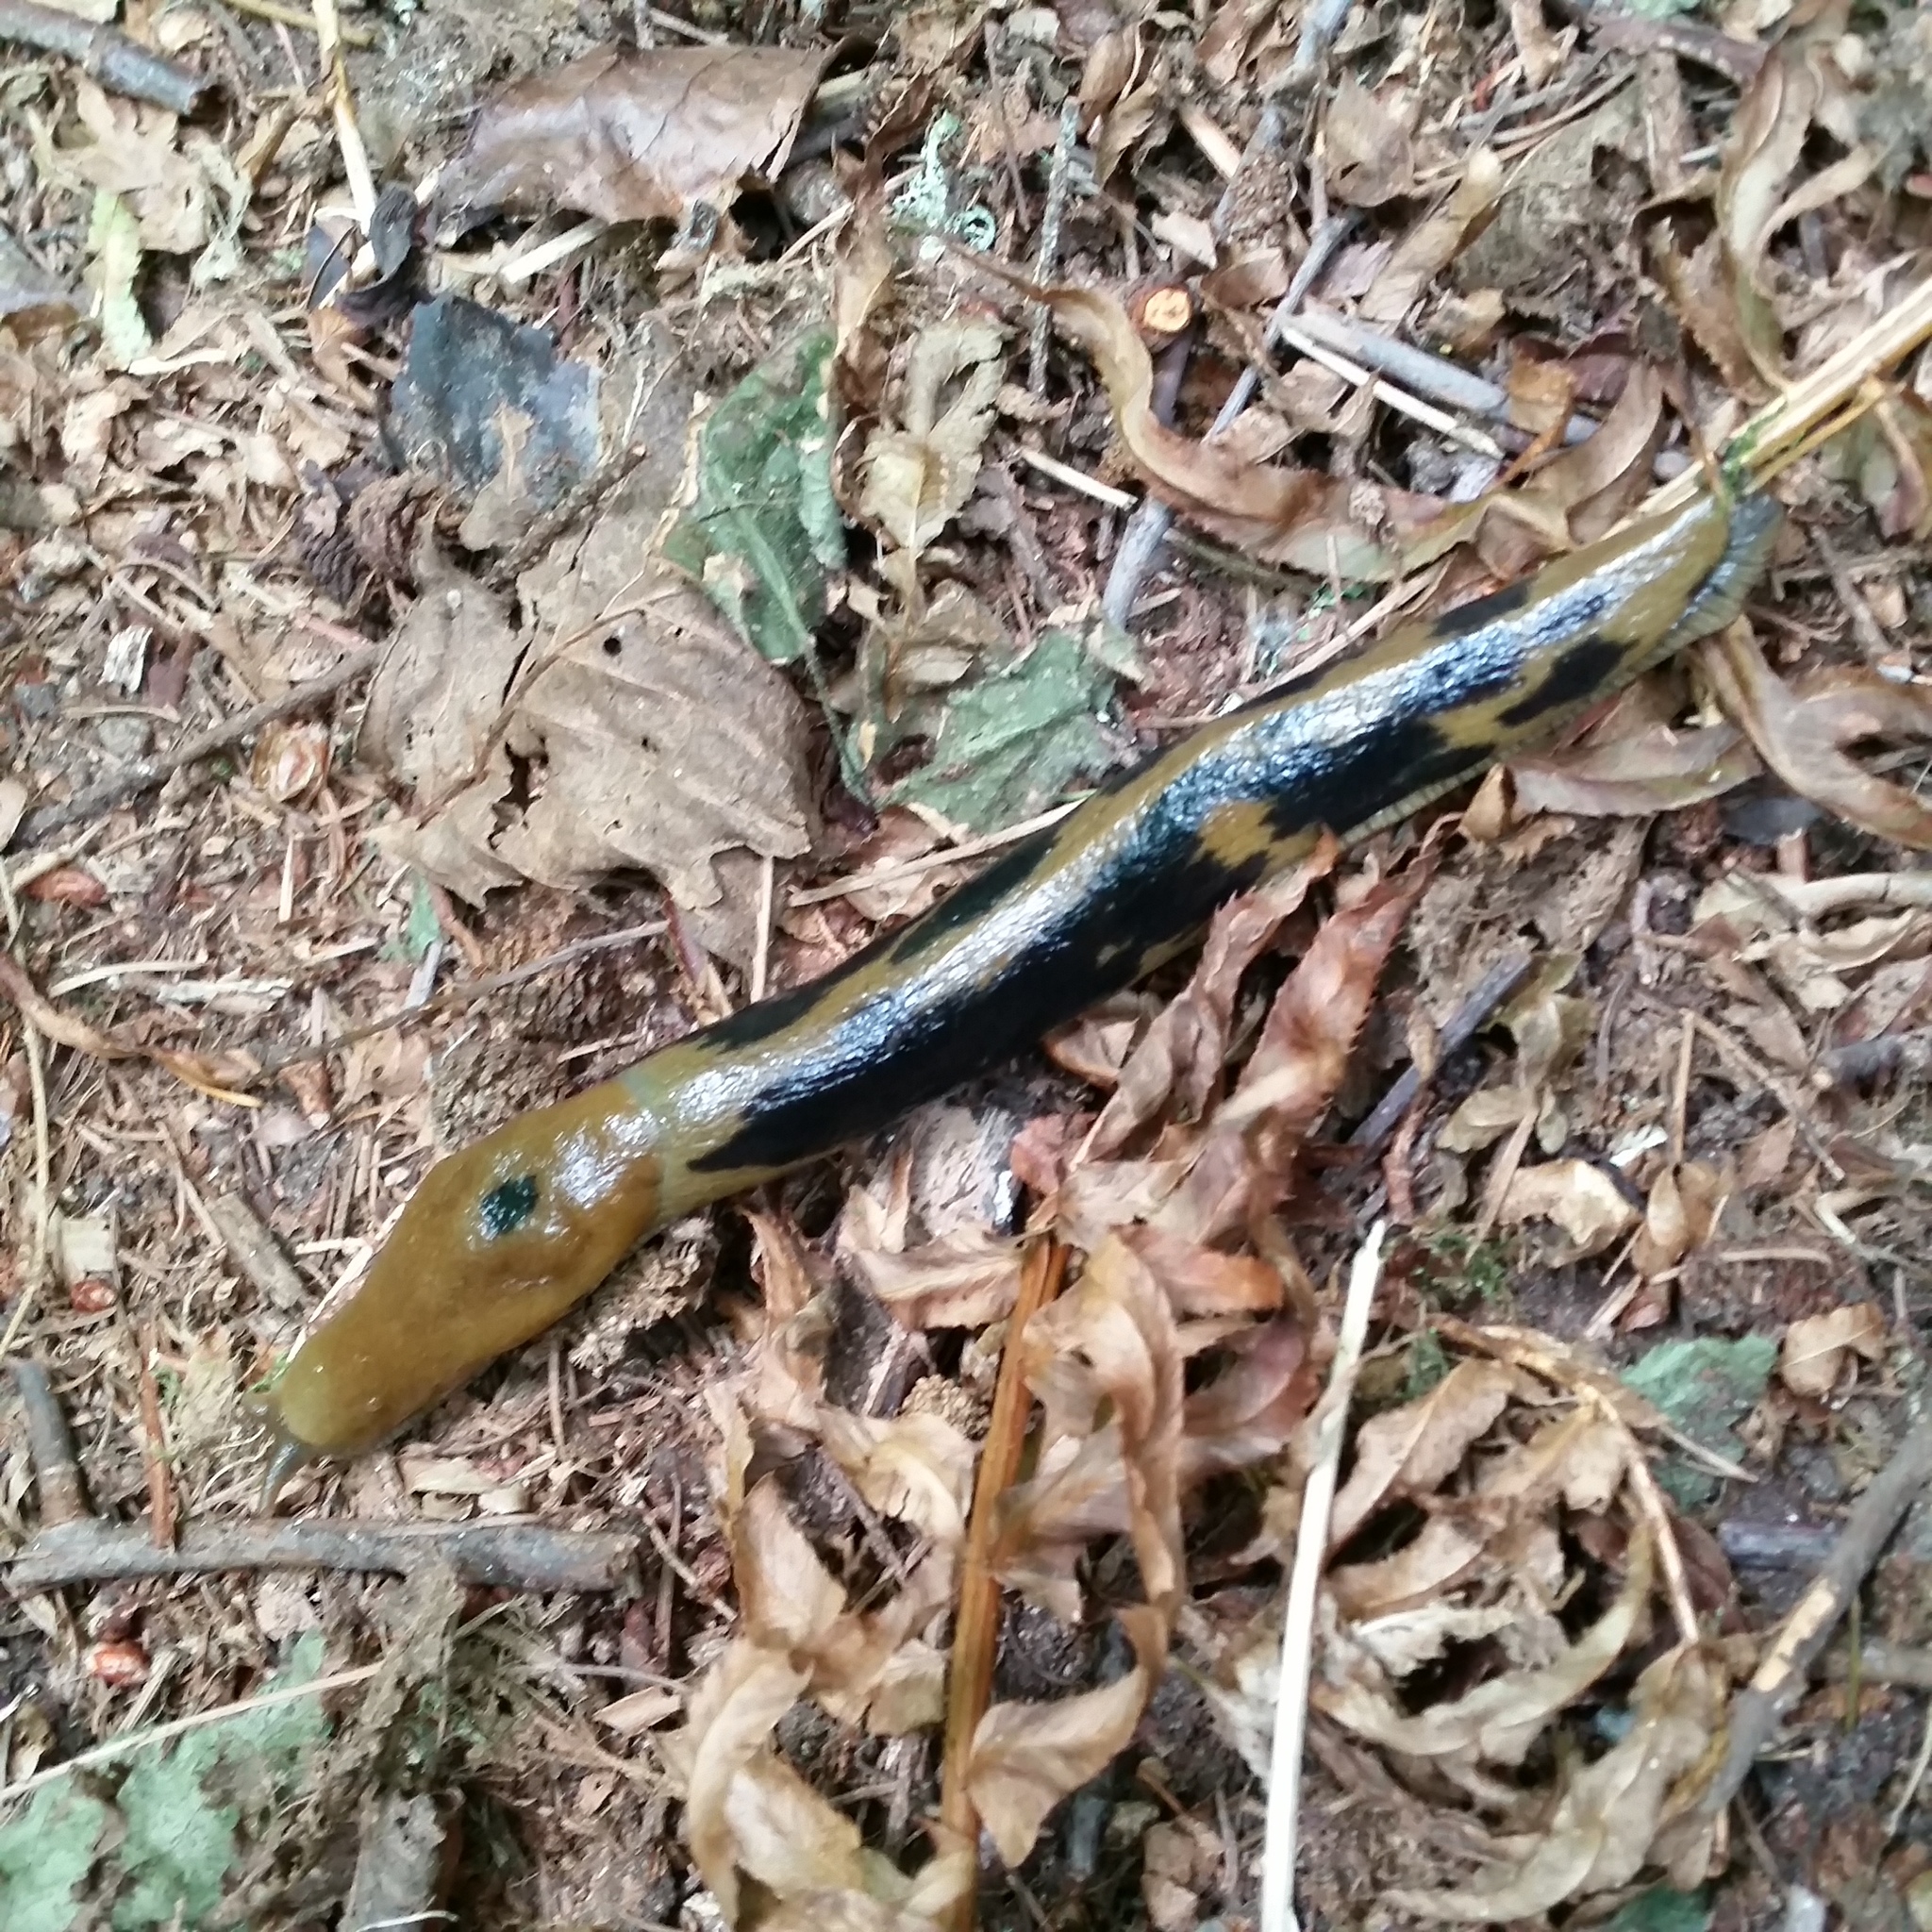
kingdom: Animalia
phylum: Mollusca
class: Gastropoda
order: Stylommatophora
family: Ariolimacidae
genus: Ariolimax
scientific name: Ariolimax columbianus
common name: Pacific banana slug
